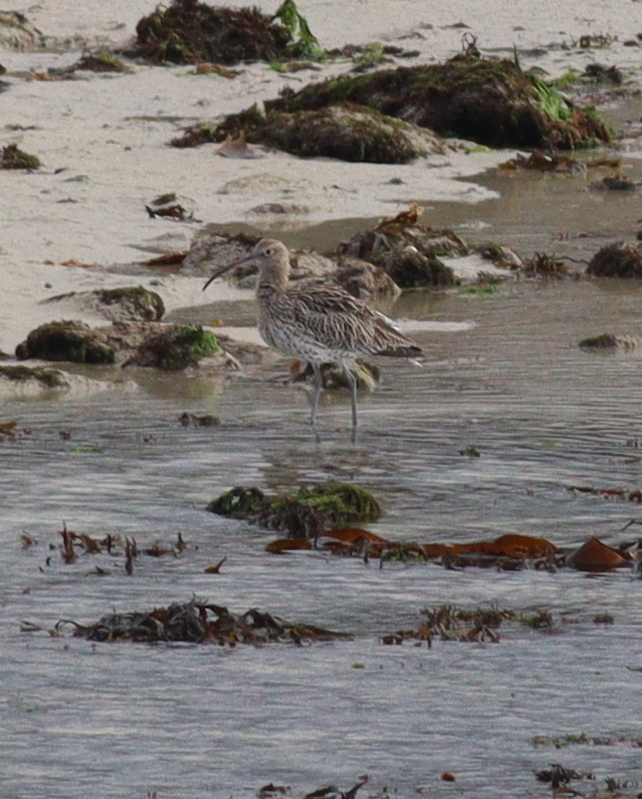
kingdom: Animalia
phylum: Chordata
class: Aves
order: Charadriiformes
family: Scolopacidae
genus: Numenius
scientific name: Numenius arquata
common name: Eurasian curlew
